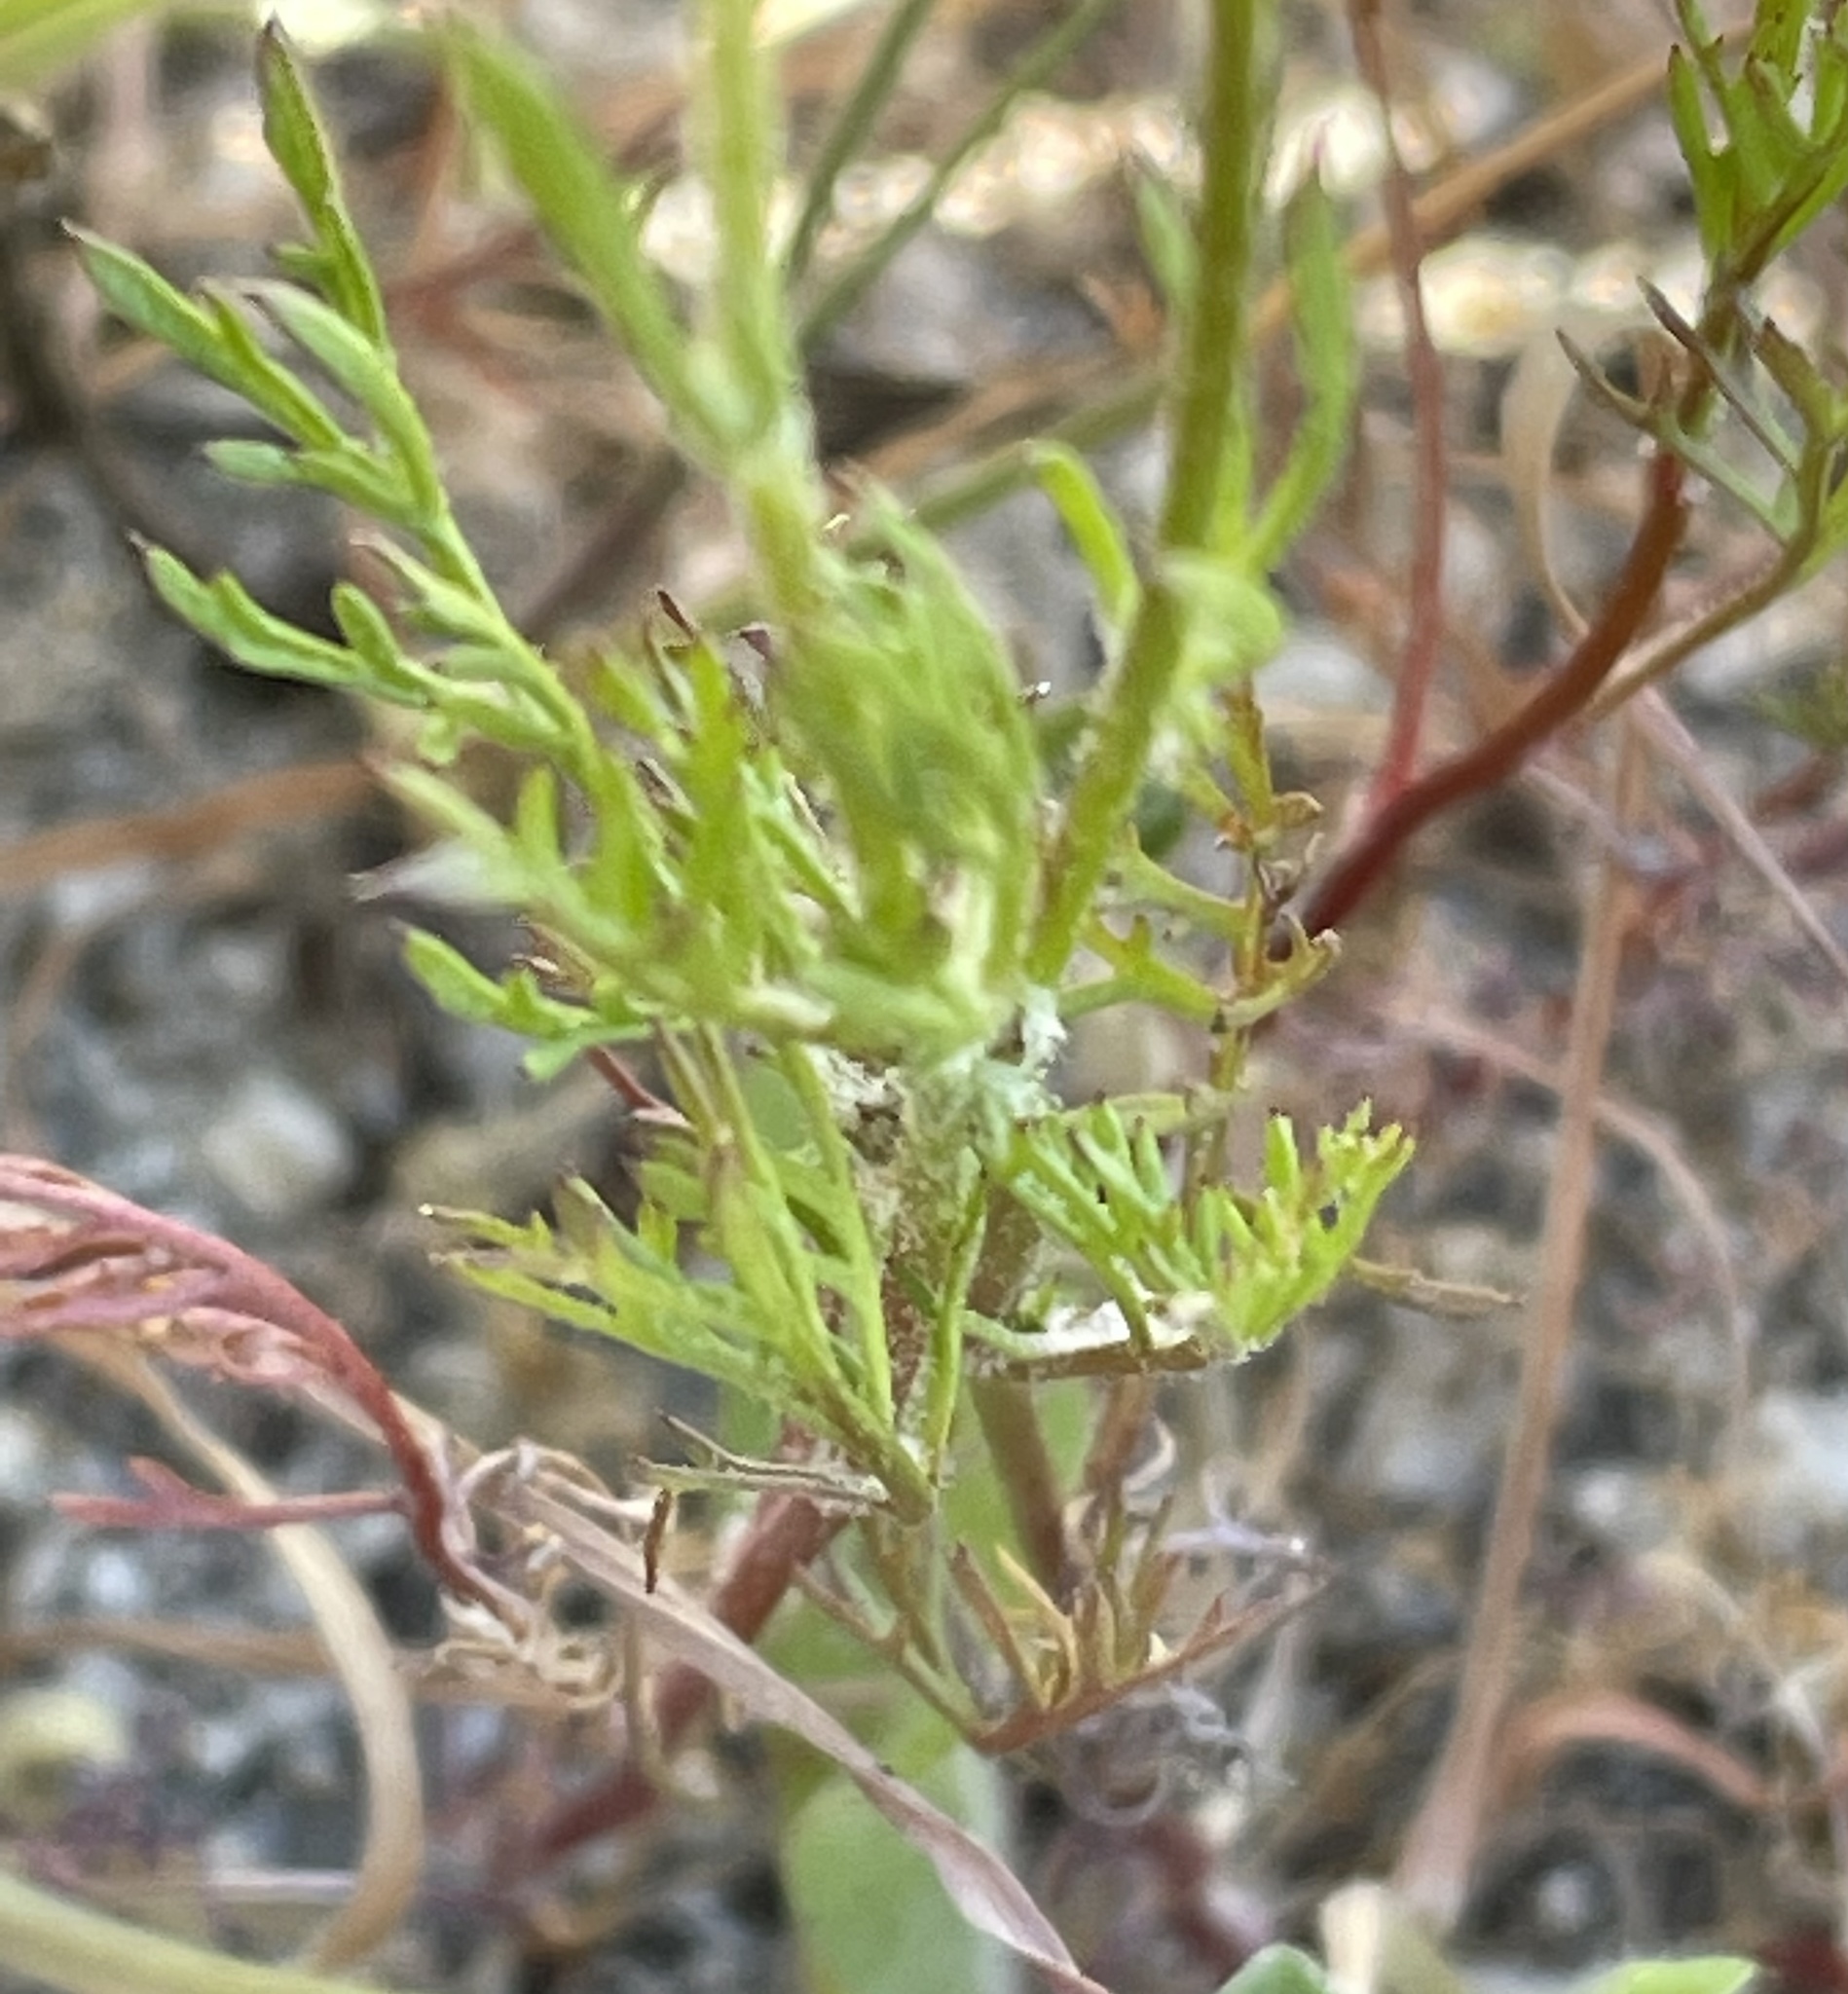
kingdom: Plantae
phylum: Tracheophyta
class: Magnoliopsida
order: Ericales
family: Polemoniaceae
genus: Gilia
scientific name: Gilia achilleifolia
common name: California gily-flower
